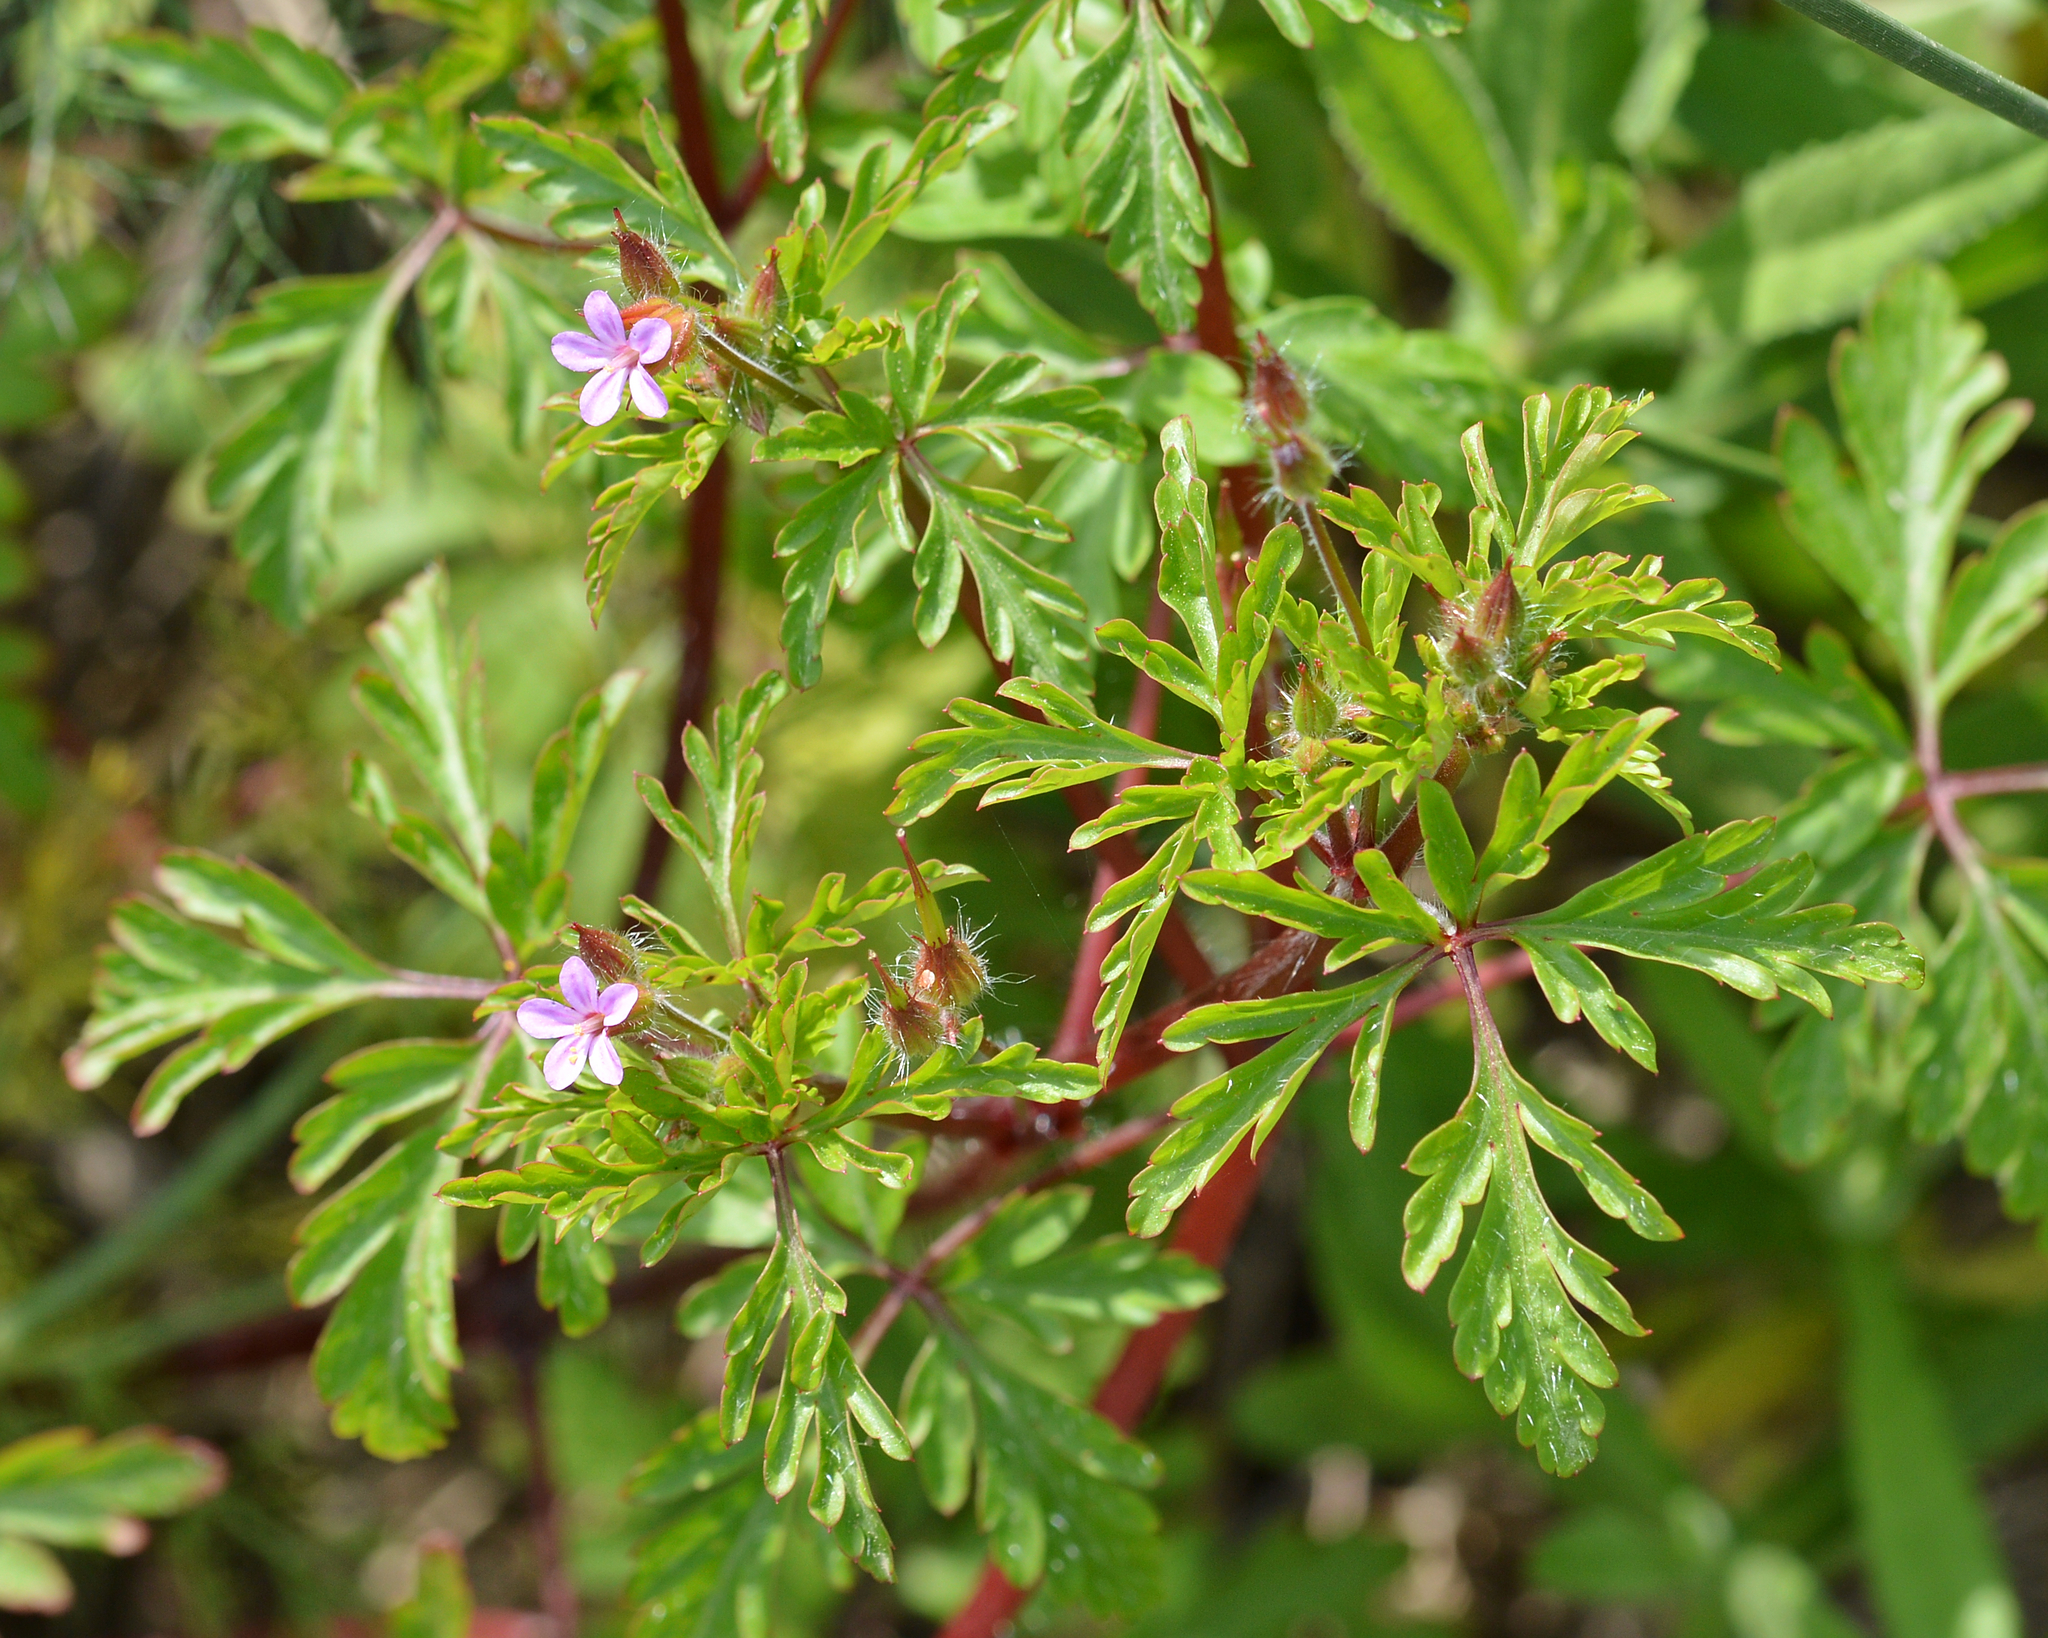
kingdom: Plantae
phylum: Tracheophyta
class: Magnoliopsida
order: Geraniales
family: Geraniaceae
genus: Geranium
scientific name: Geranium purpureum
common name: Little-robin
